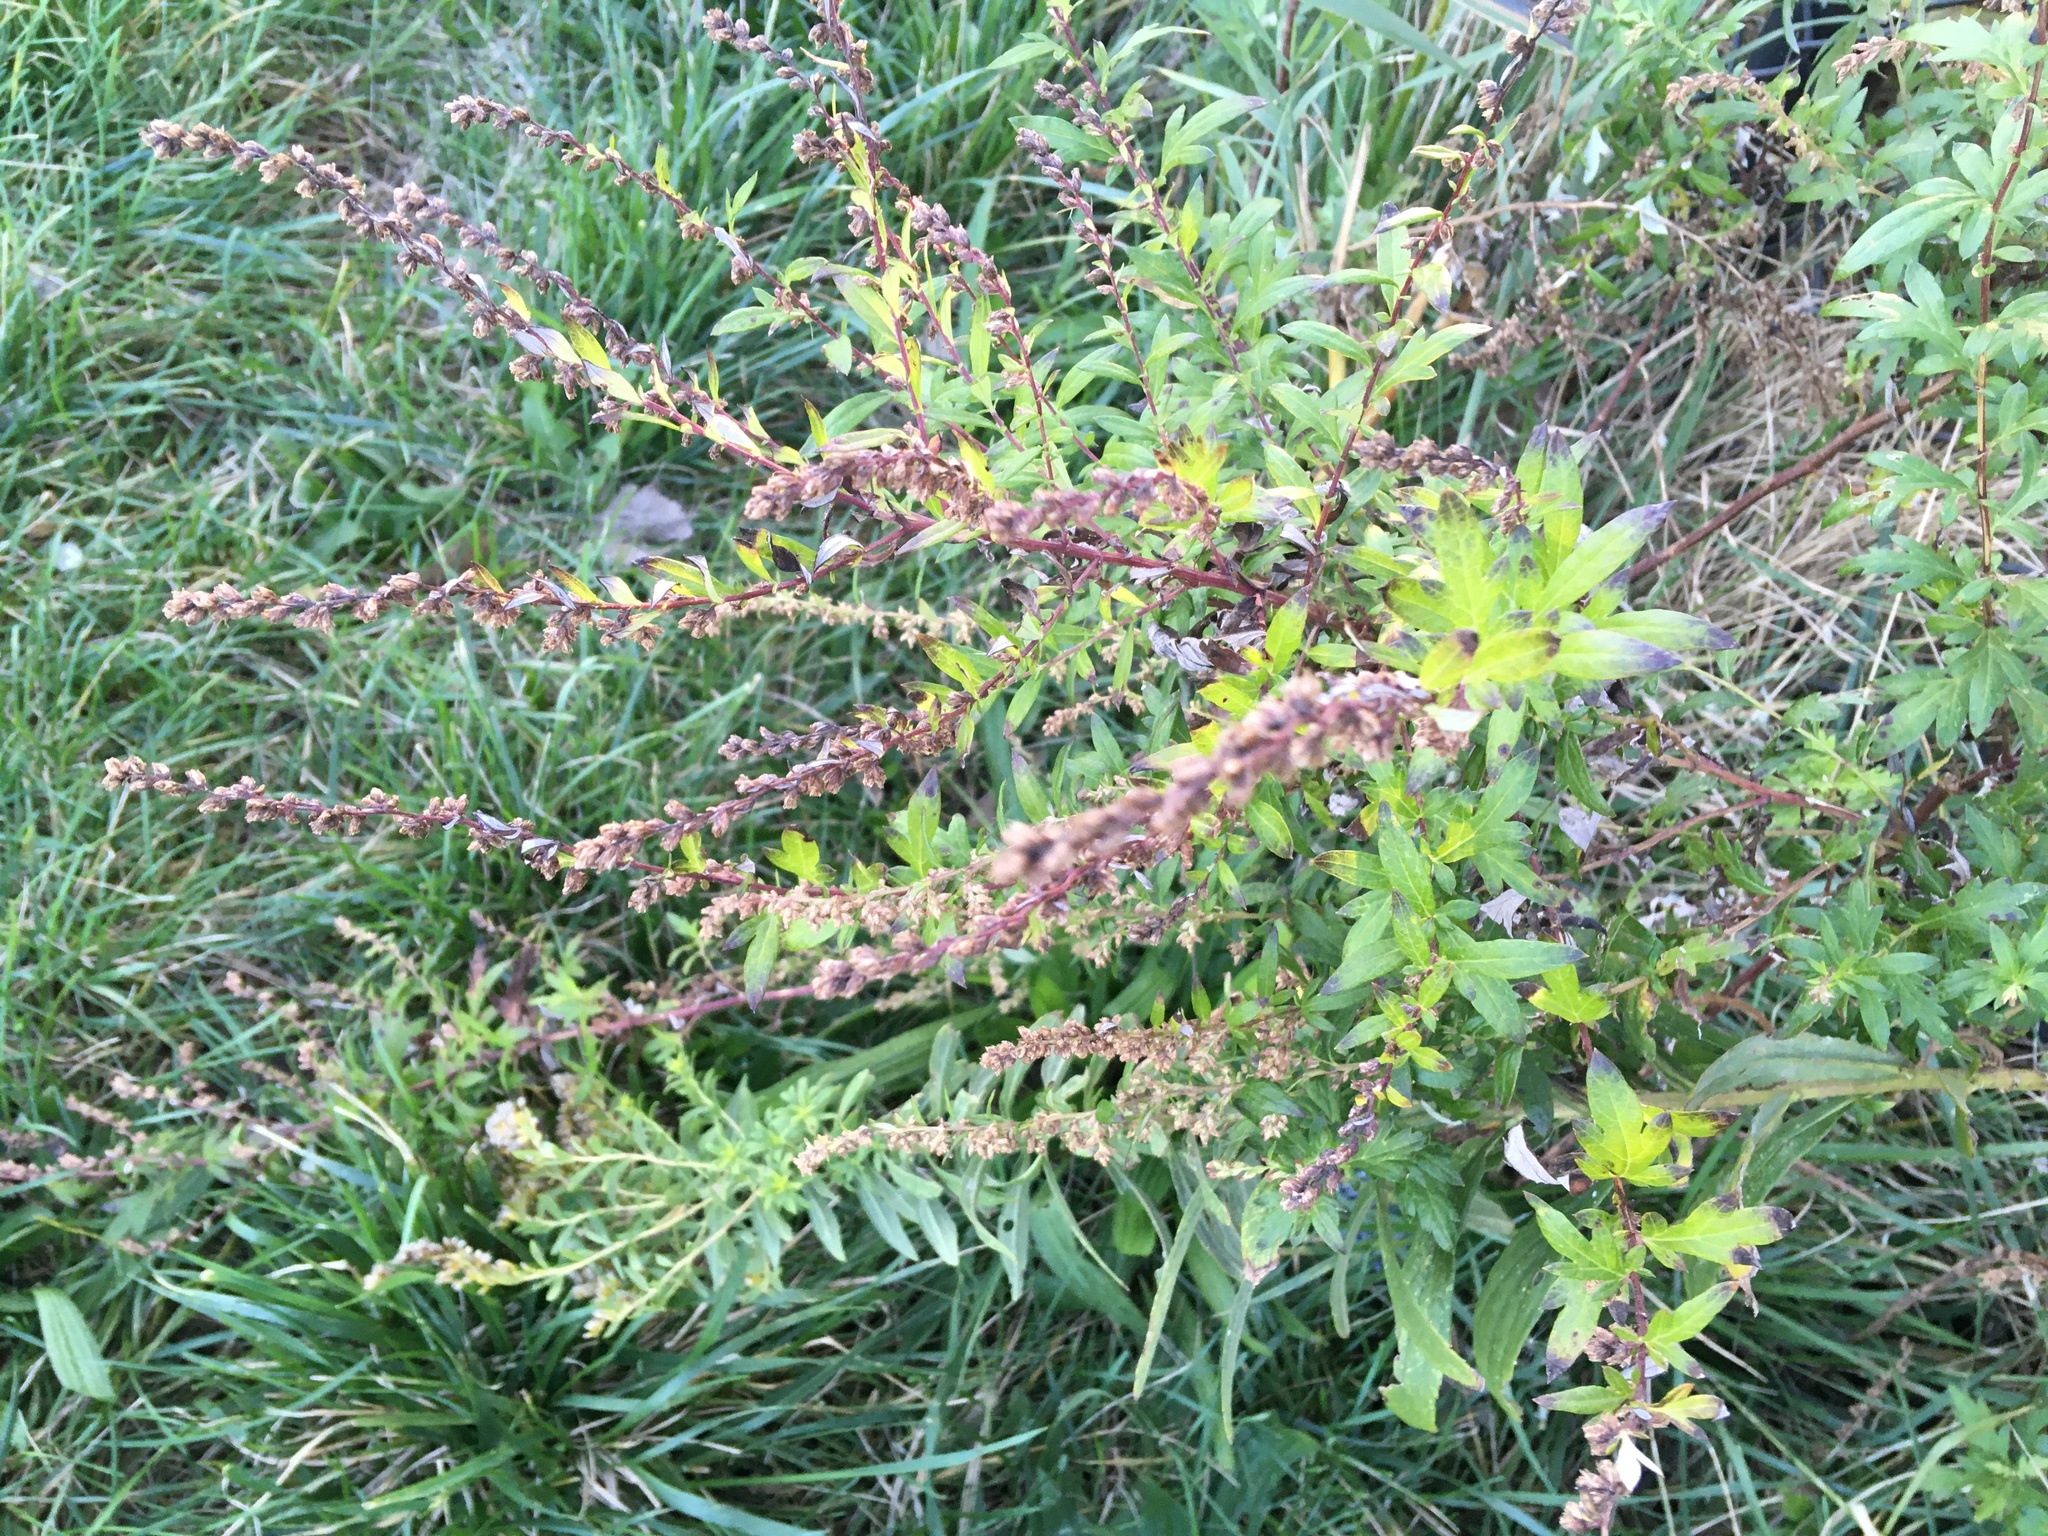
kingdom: Plantae
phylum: Tracheophyta
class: Magnoliopsida
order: Asterales
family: Asteraceae
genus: Artemisia
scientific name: Artemisia vulgaris
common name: Mugwort
